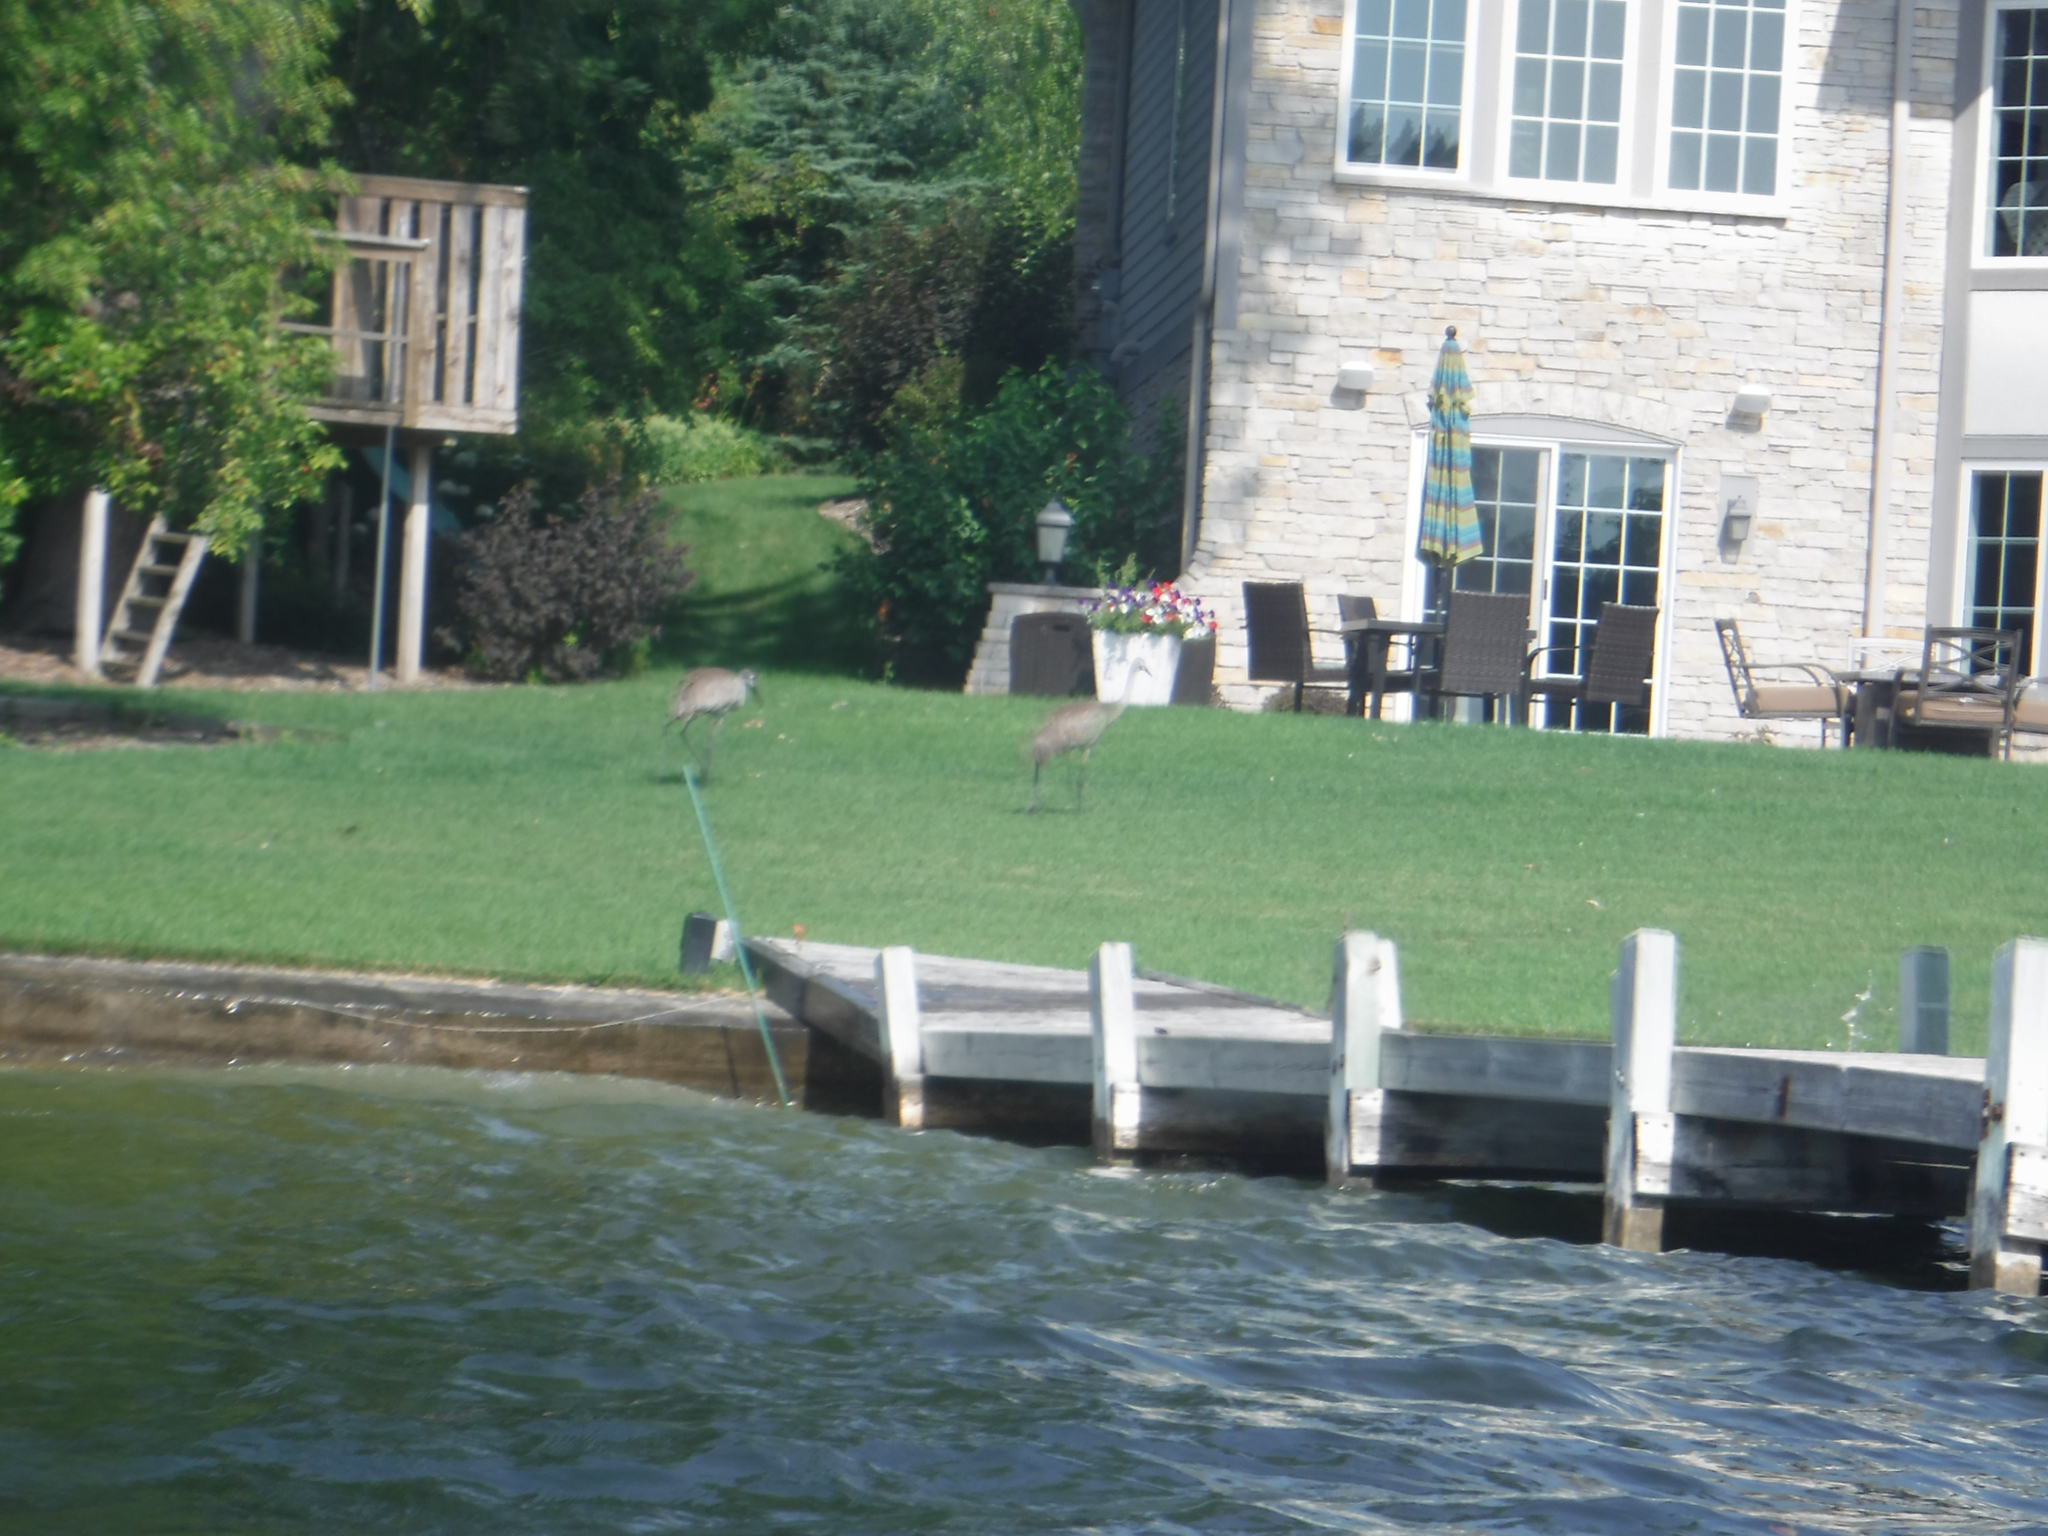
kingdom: Animalia
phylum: Chordata
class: Aves
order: Gruiformes
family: Gruidae
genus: Grus
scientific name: Grus canadensis
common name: Sandhill crane
